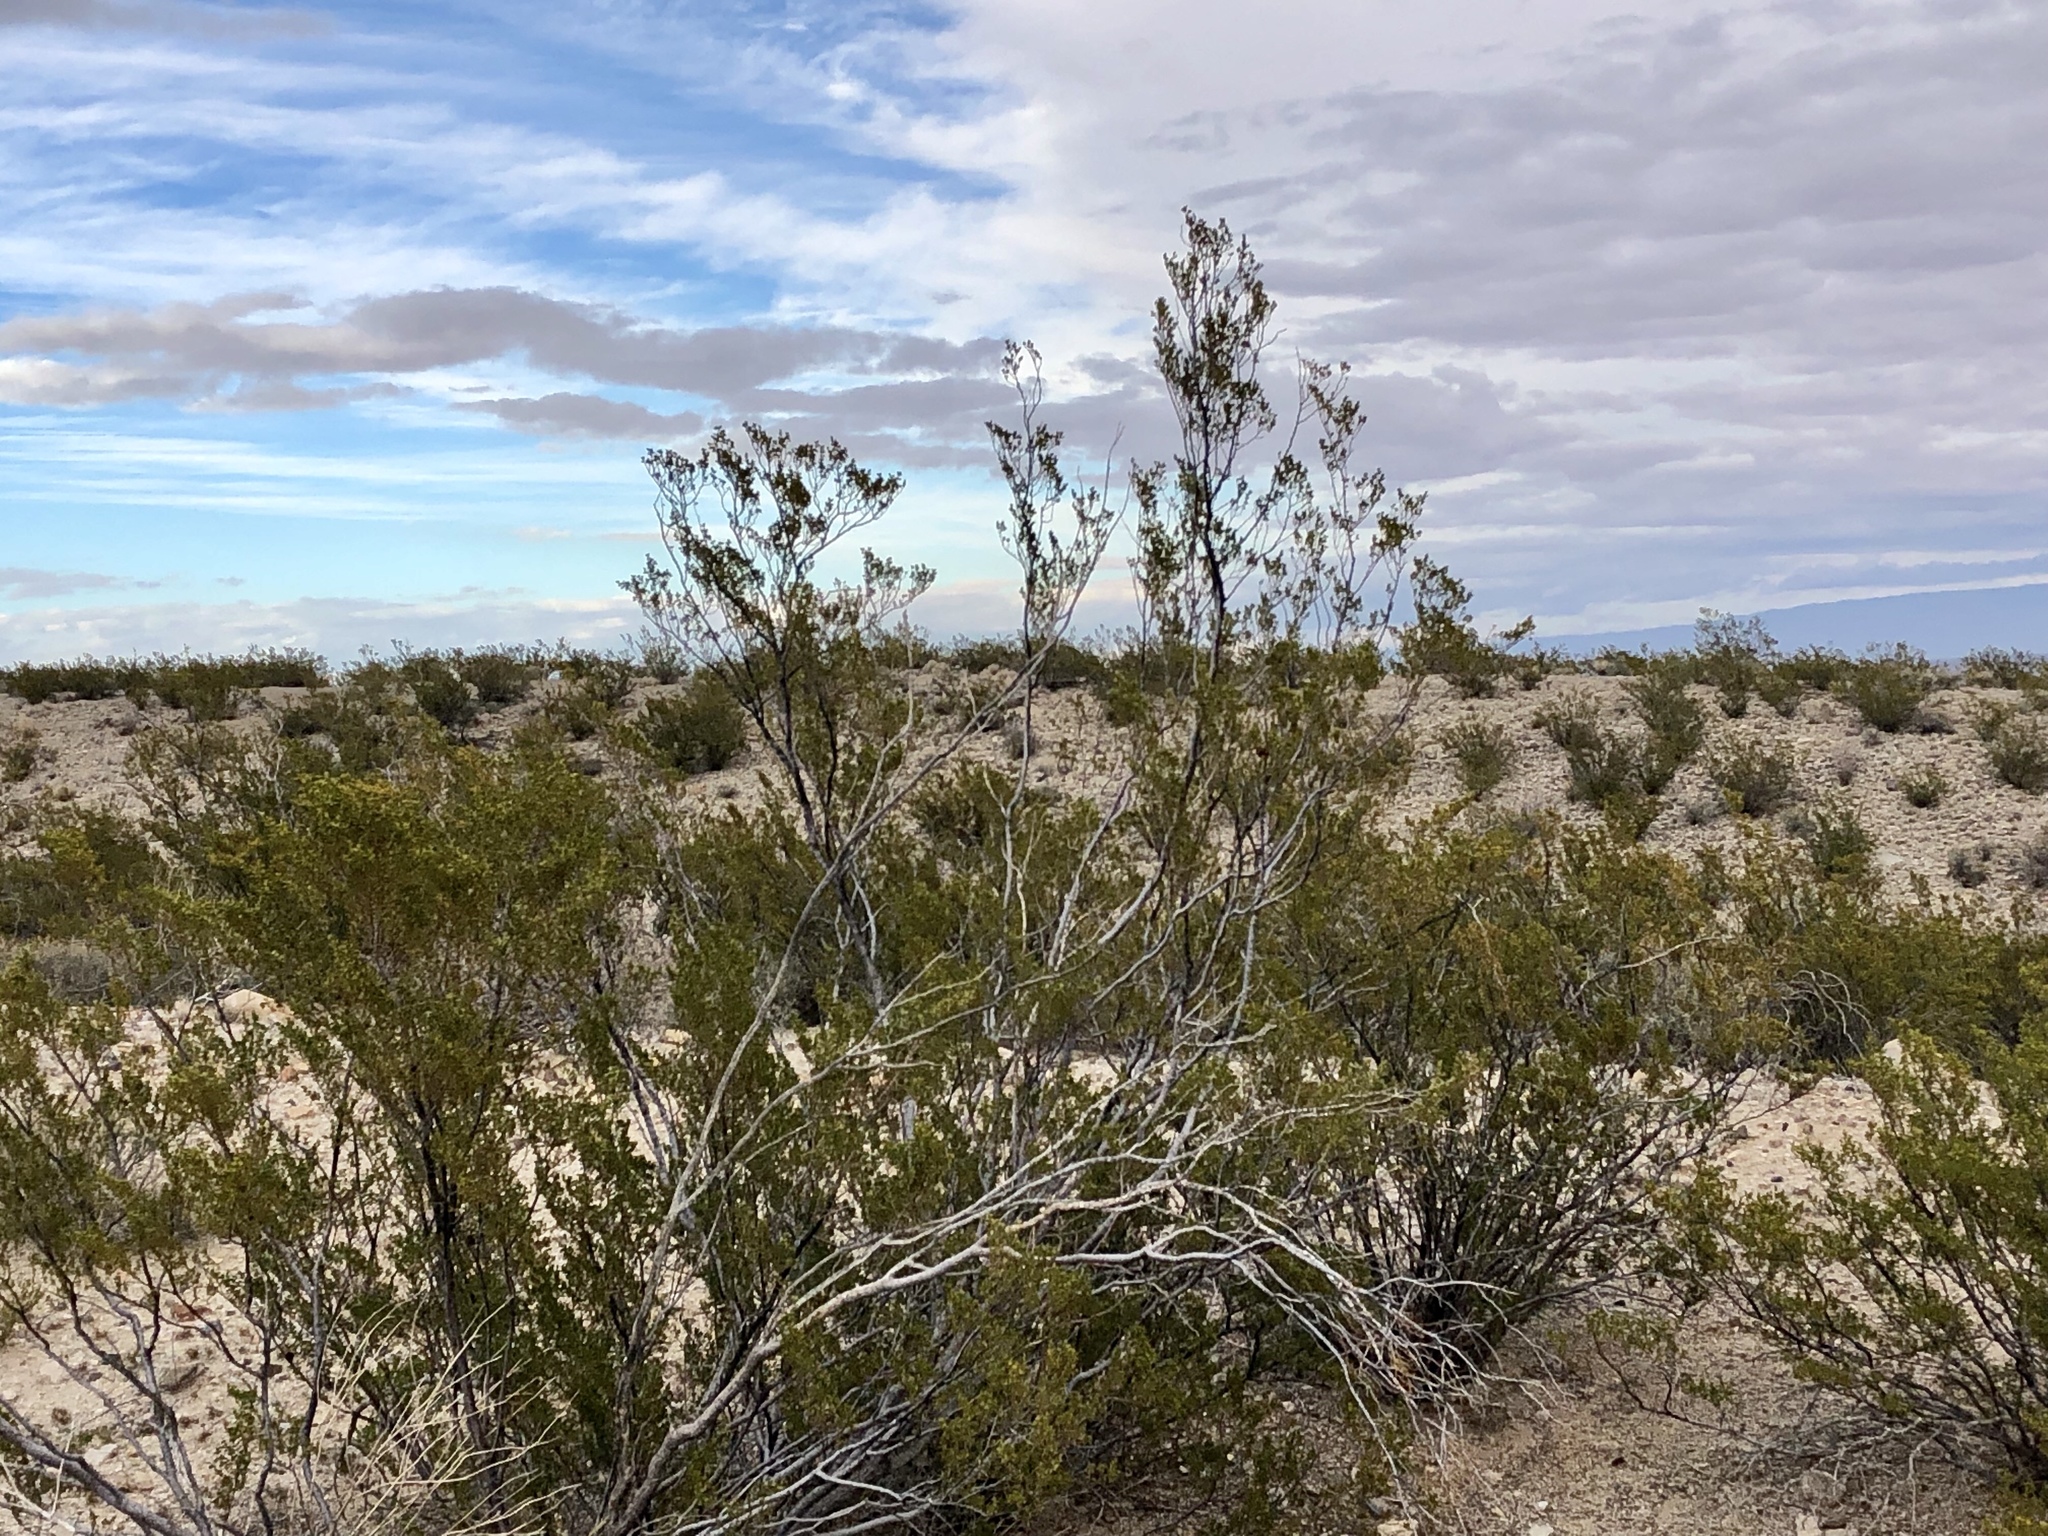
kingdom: Plantae
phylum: Tracheophyta
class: Magnoliopsida
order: Zygophyllales
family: Zygophyllaceae
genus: Larrea
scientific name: Larrea tridentata
